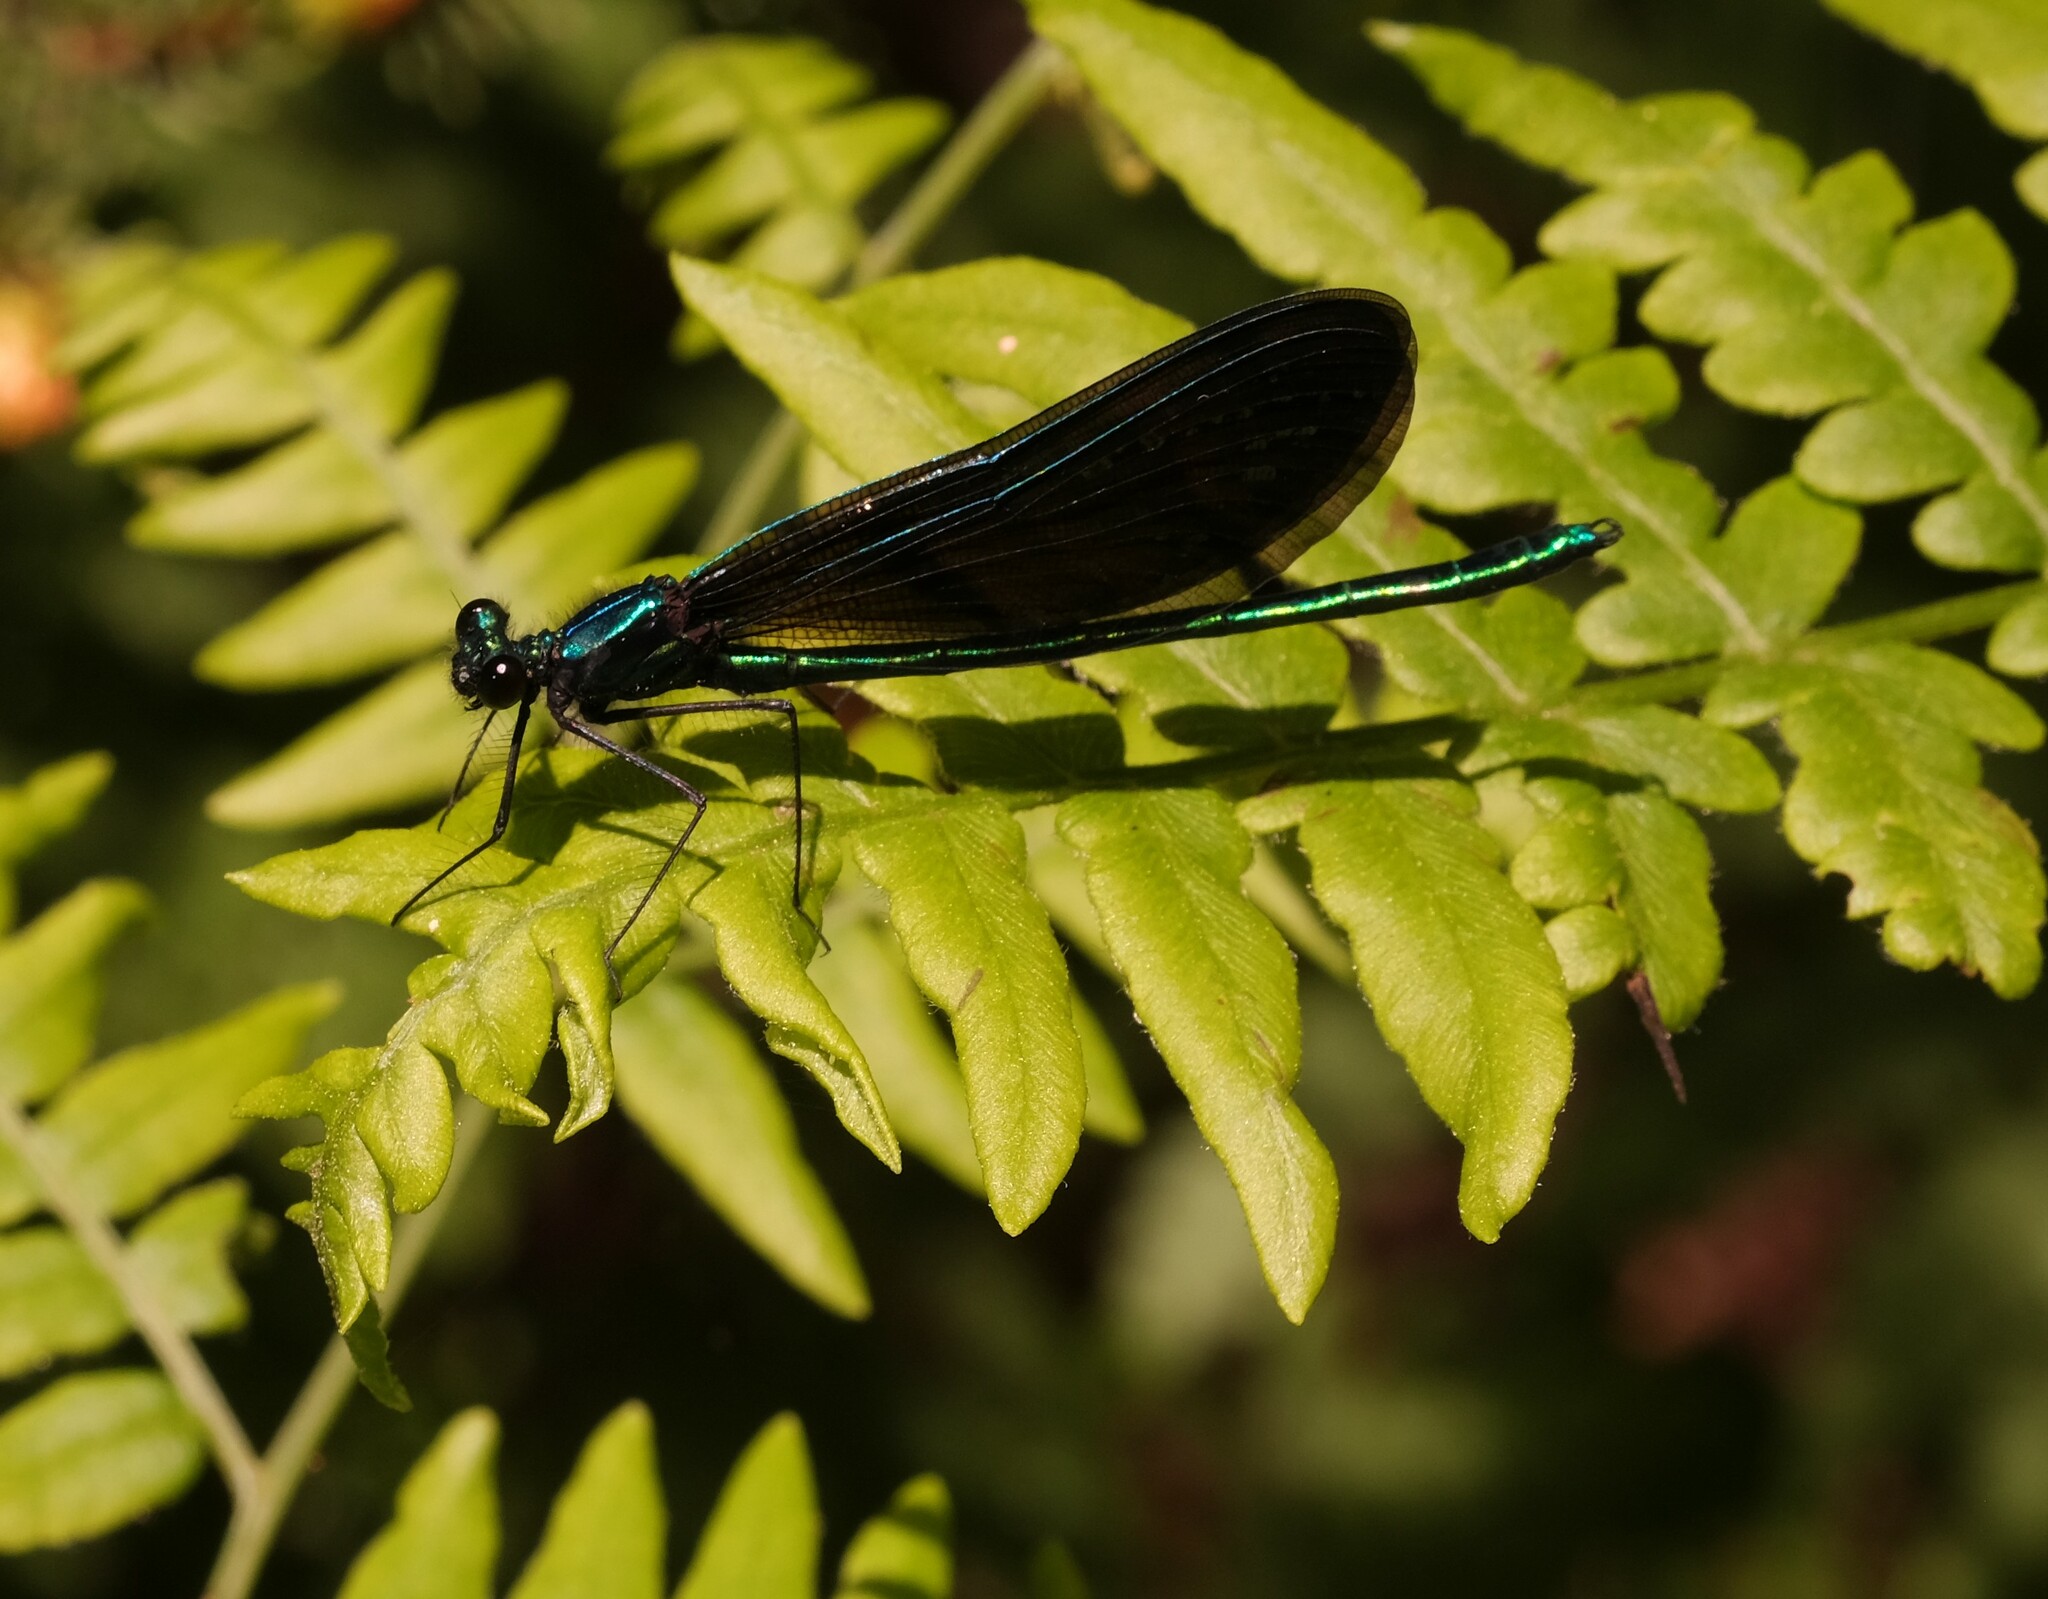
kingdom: Animalia
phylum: Arthropoda
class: Insecta
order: Odonata
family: Calopterygidae
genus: Calopteryx
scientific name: Calopteryx maculata
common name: Ebony jewelwing
